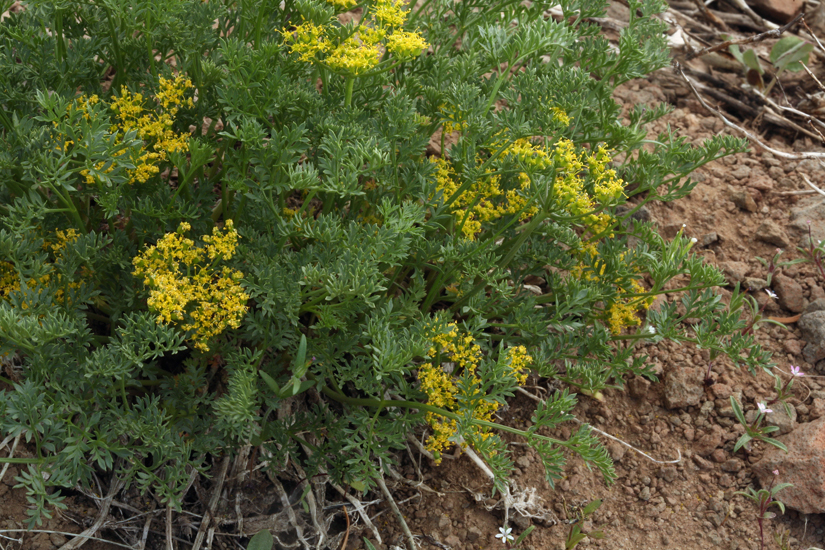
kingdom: Plantae
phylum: Tracheophyta
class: Magnoliopsida
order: Apiales
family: Apiaceae
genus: Pteryxia
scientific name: Pteryxia terebinthina
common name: Turpentine wavewing
